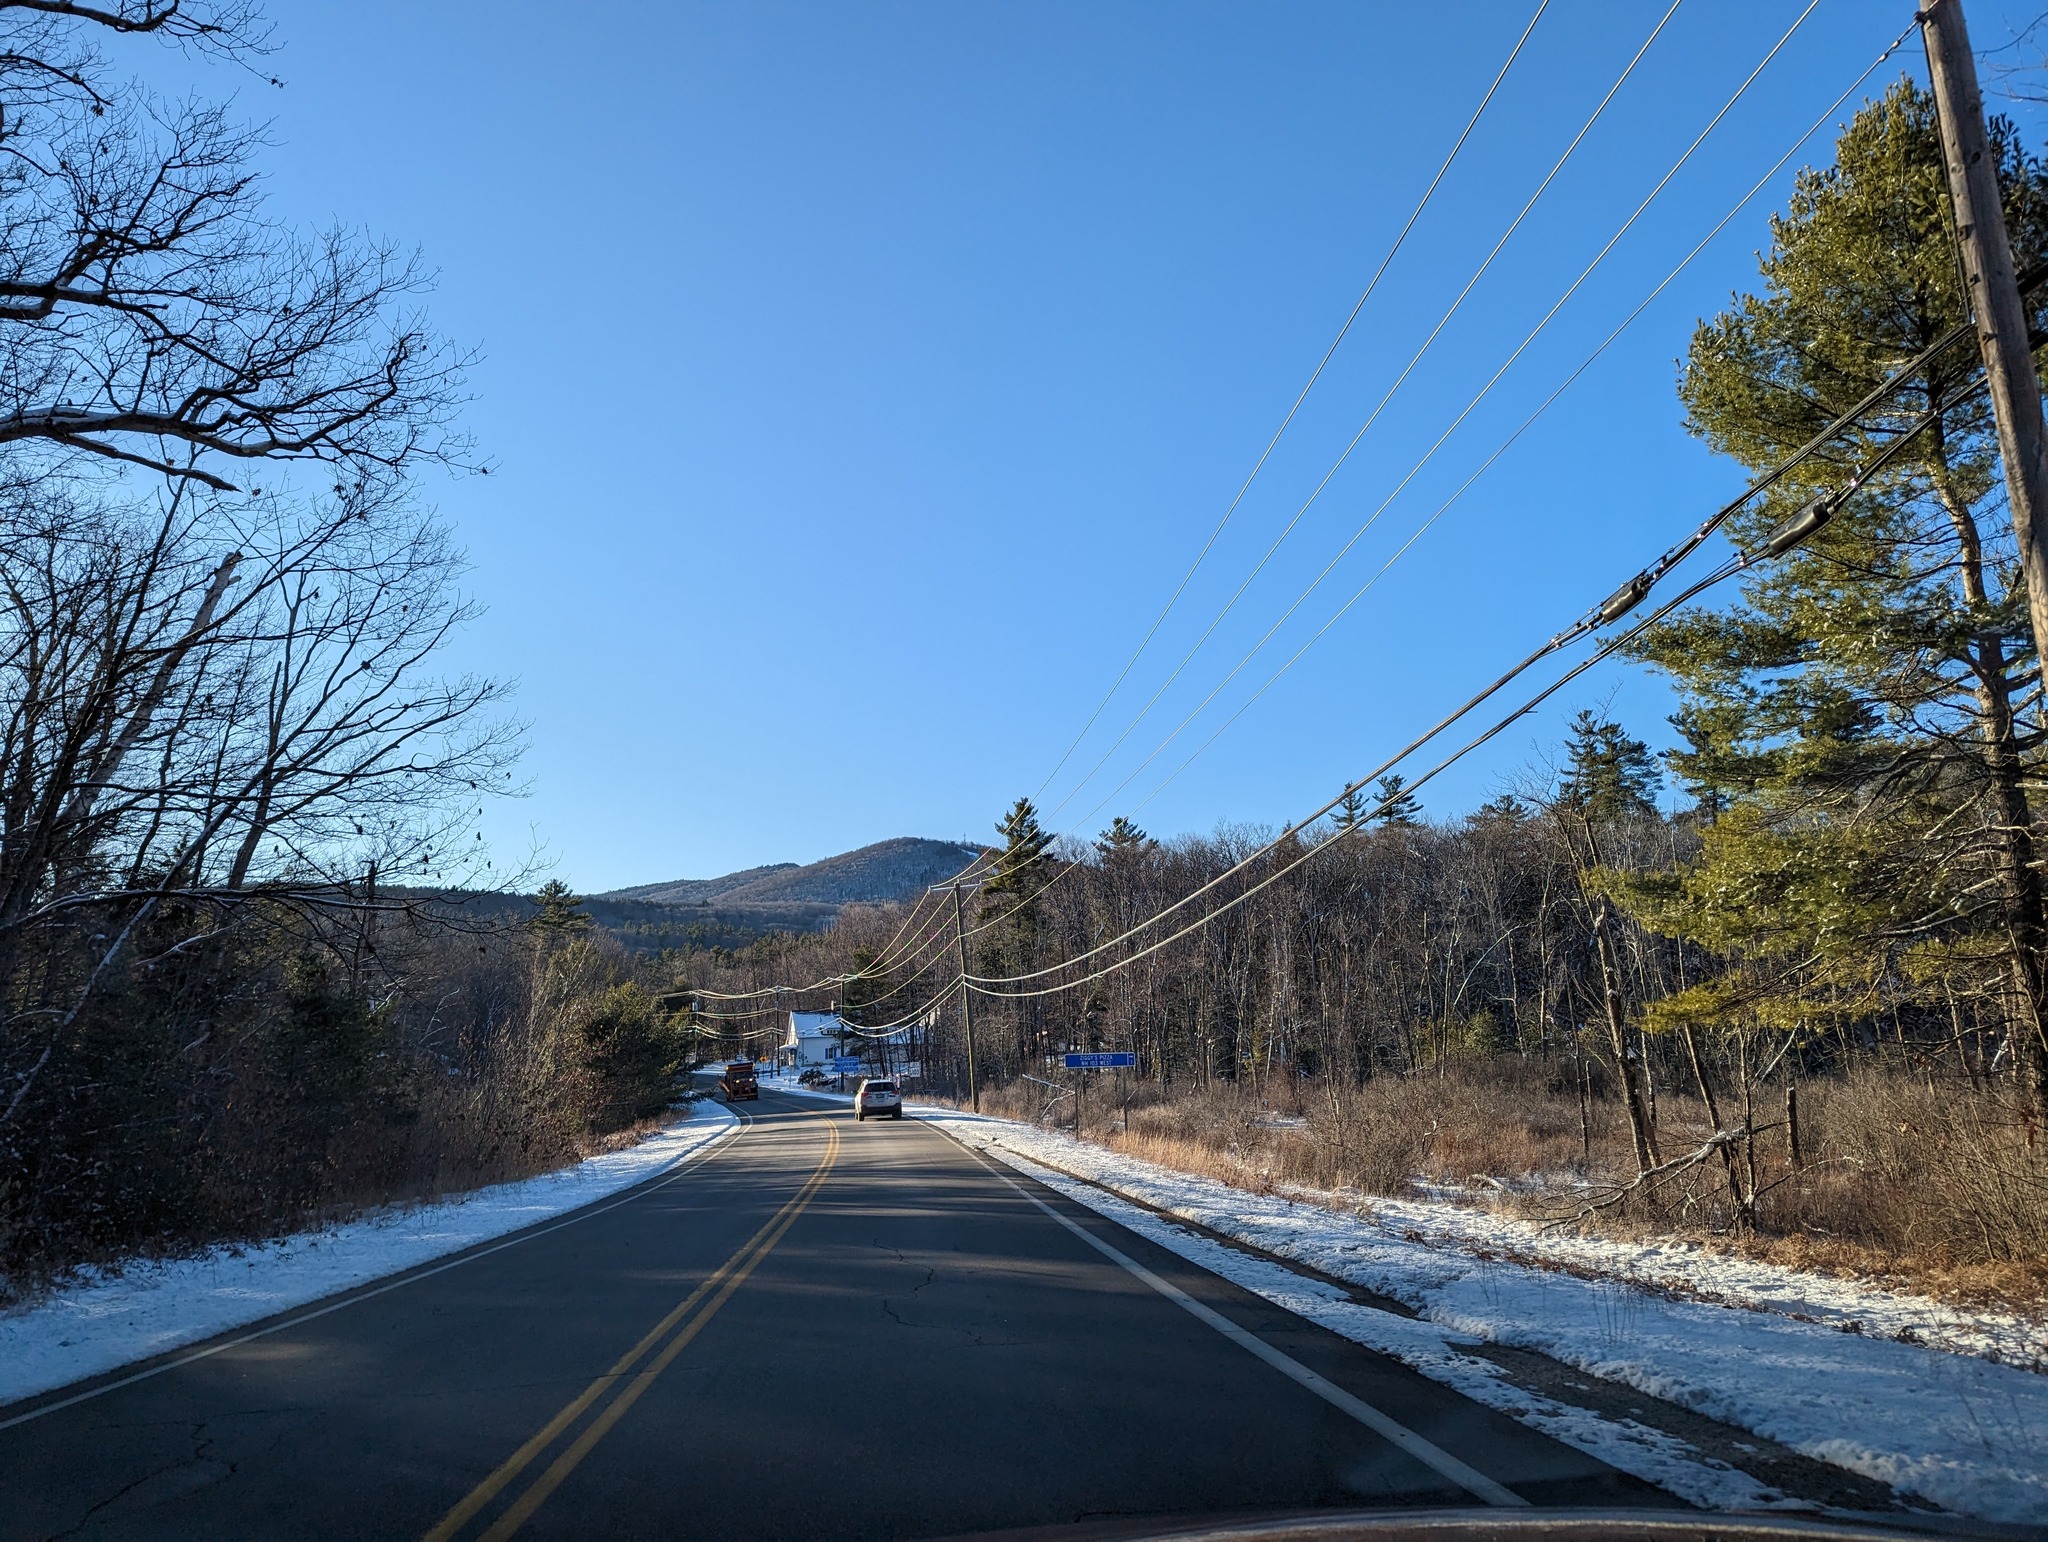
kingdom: Plantae
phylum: Tracheophyta
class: Pinopsida
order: Pinales
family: Pinaceae
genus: Pinus
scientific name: Pinus strobus
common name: Weymouth pine
